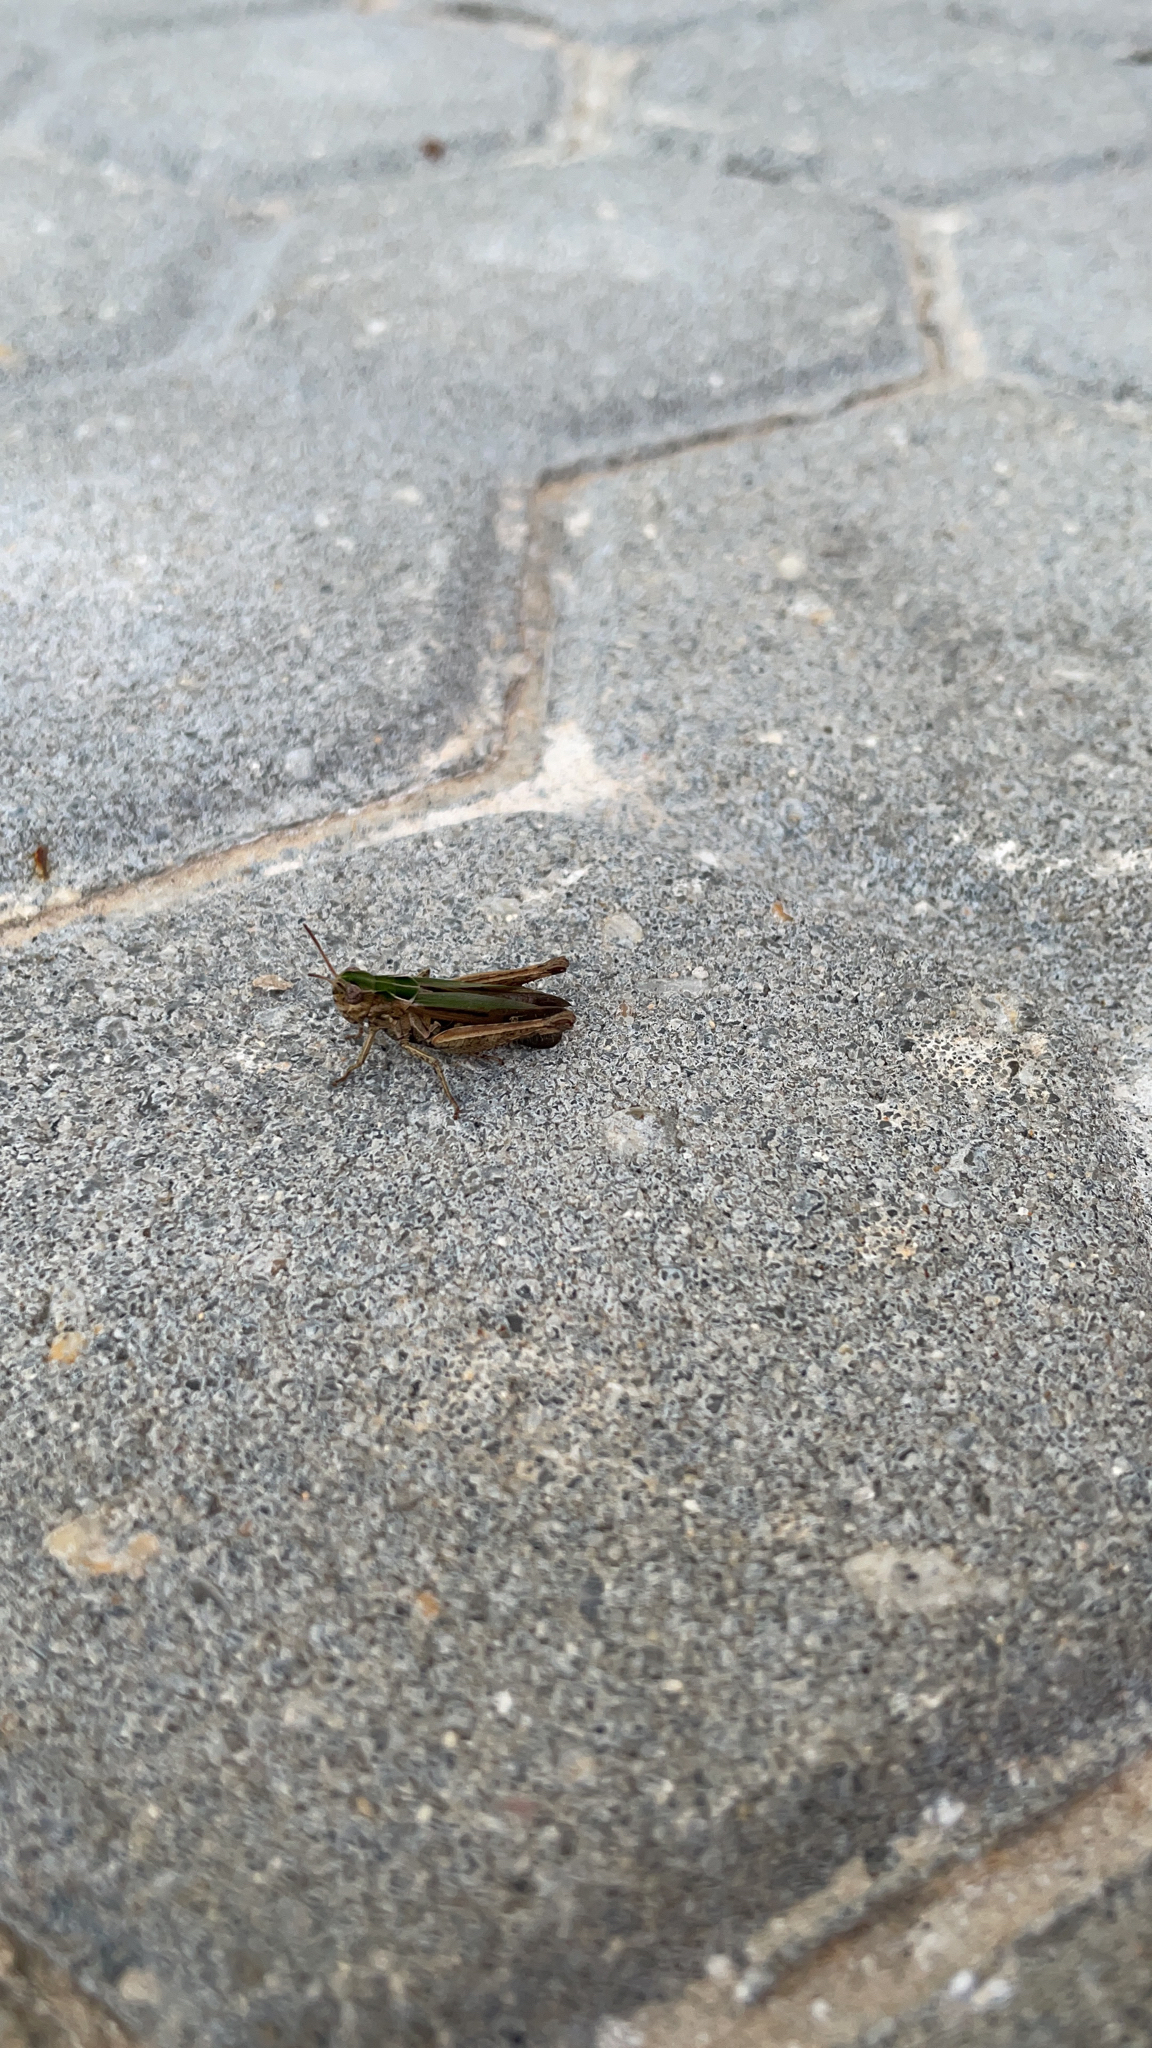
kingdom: Animalia
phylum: Arthropoda
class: Insecta
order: Orthoptera
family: Acrididae
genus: Omocestus
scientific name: Omocestus rufipes
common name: Woodland grasshopper
